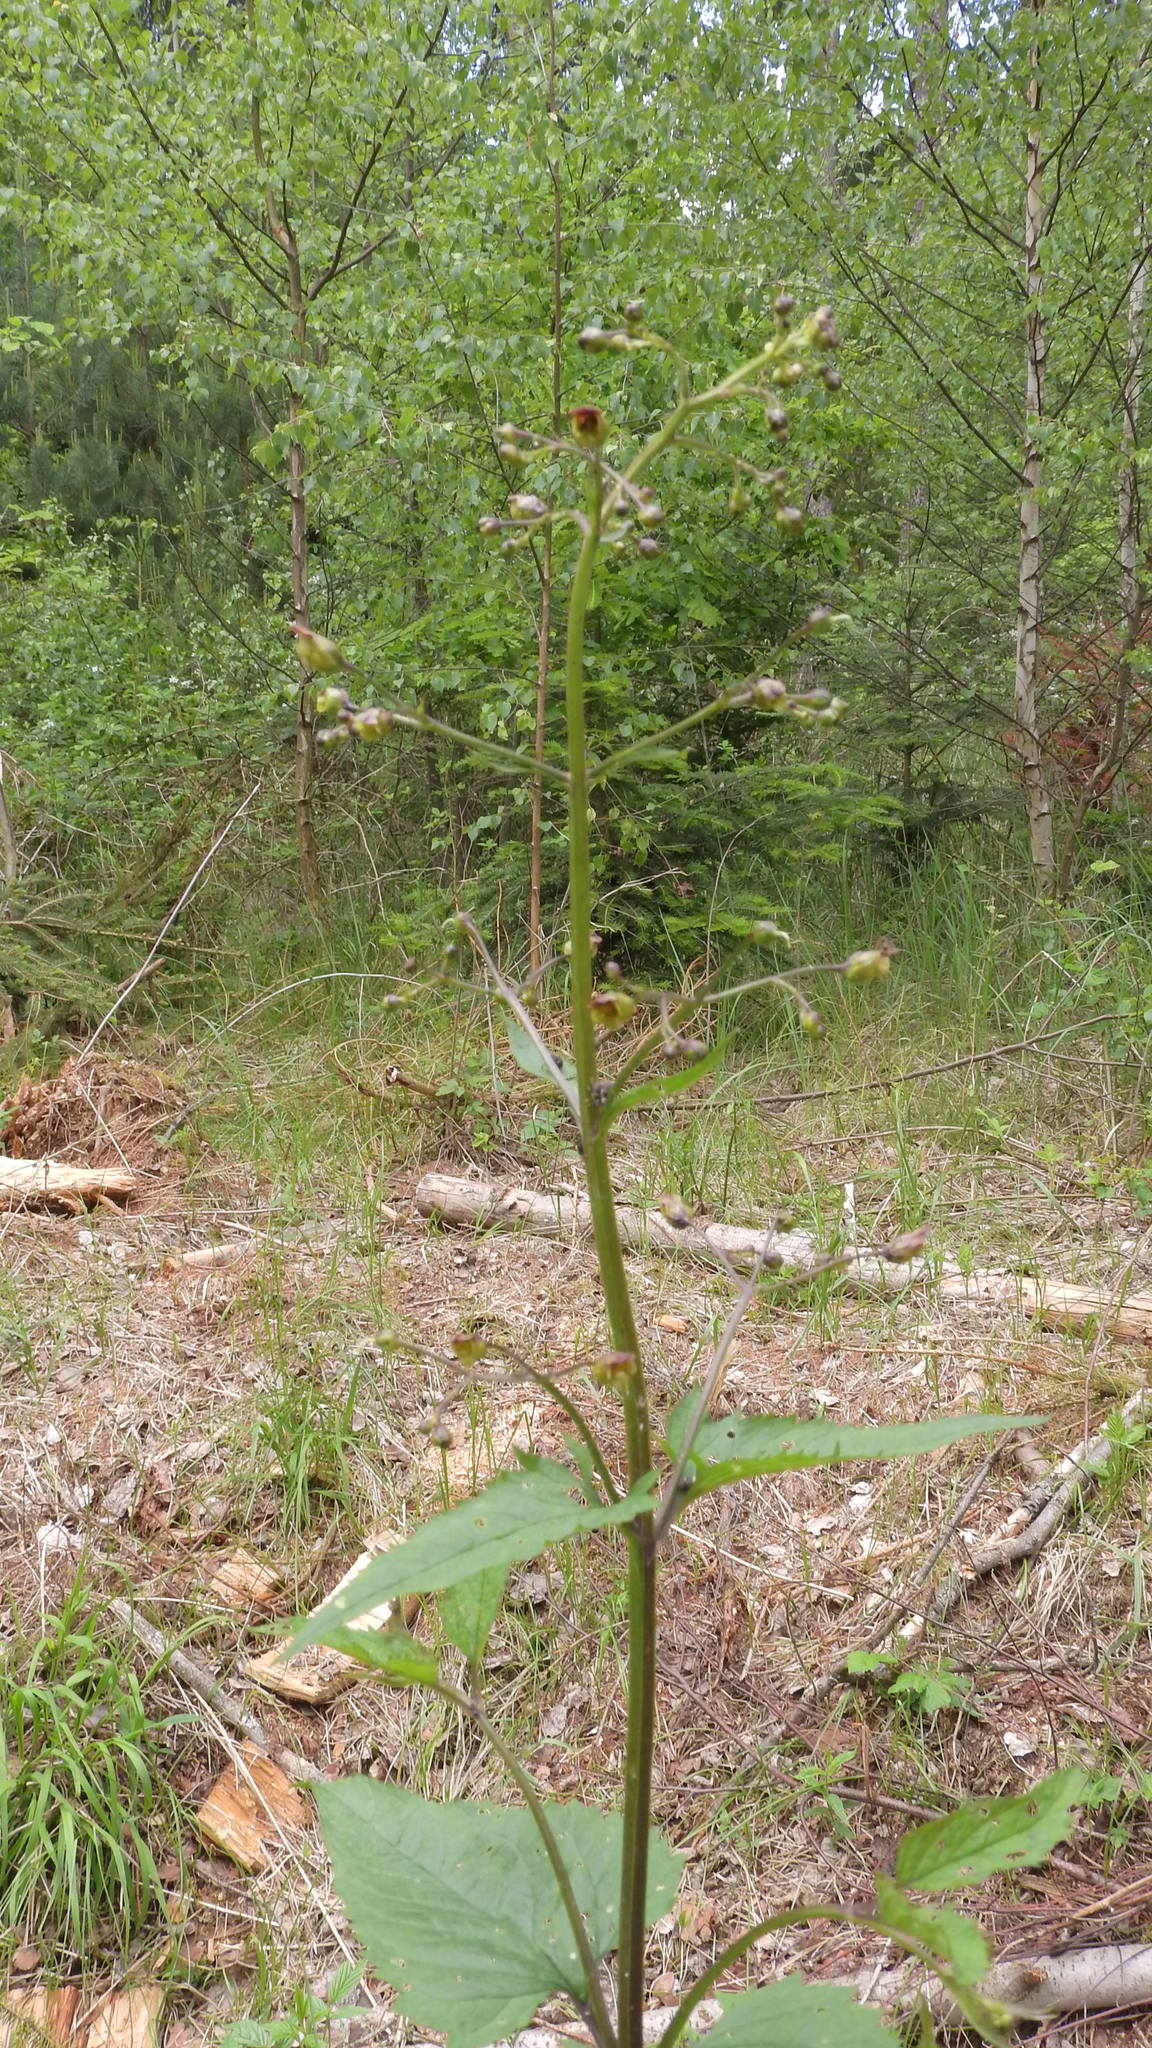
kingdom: Plantae
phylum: Tracheophyta
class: Magnoliopsida
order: Lamiales
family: Scrophulariaceae
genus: Scrophularia
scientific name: Scrophularia nodosa
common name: Common figwort
